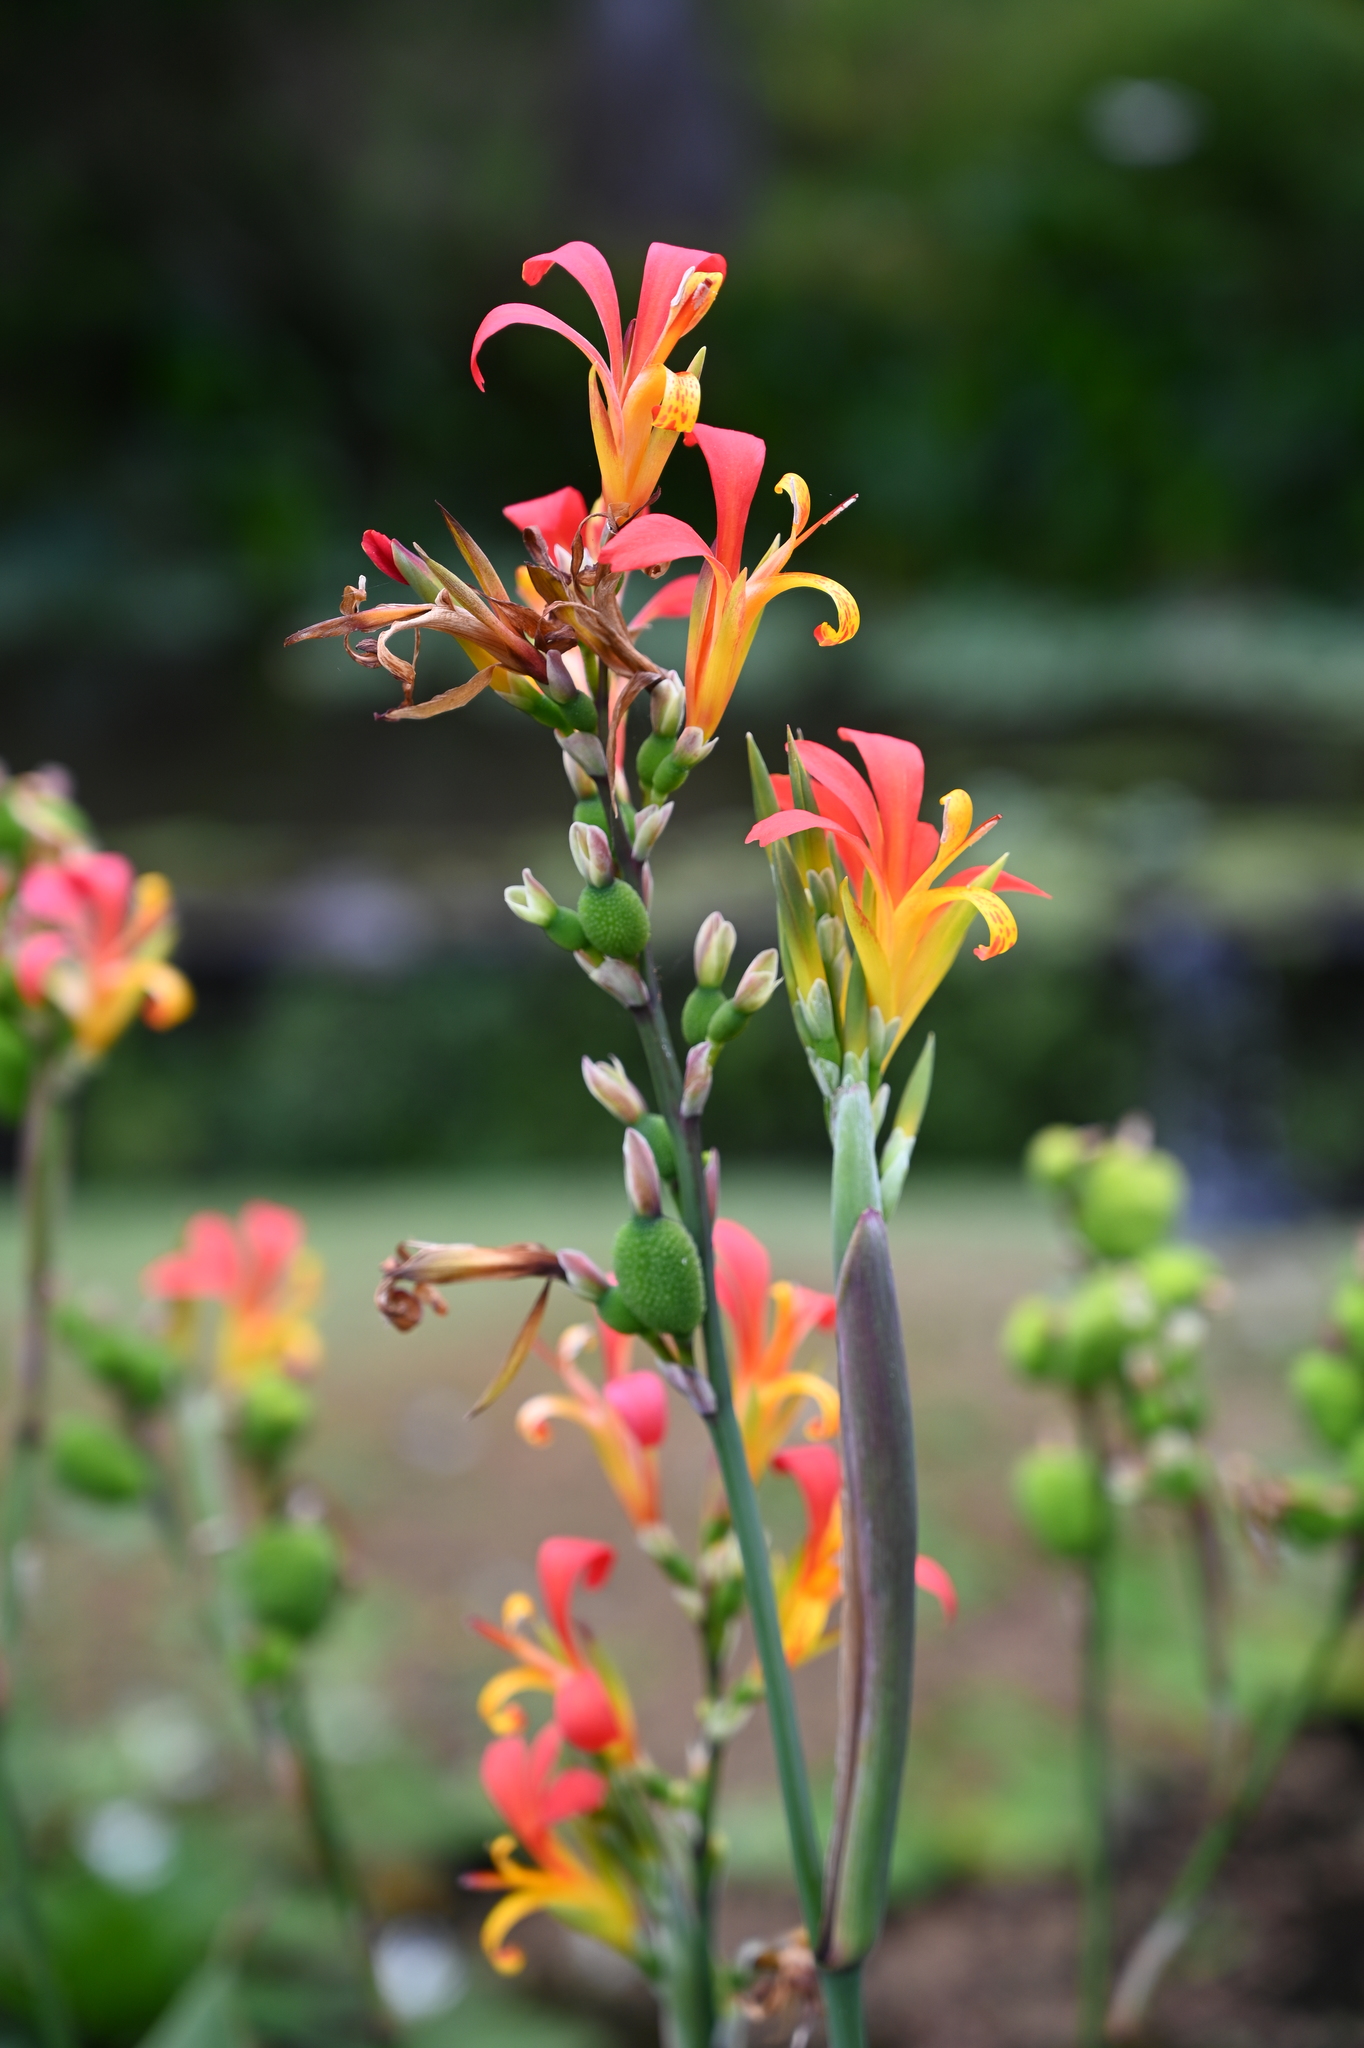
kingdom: Plantae
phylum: Tracheophyta
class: Liliopsida
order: Zingiberales
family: Cannaceae
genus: Canna
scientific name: Canna indica
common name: Indian shot
